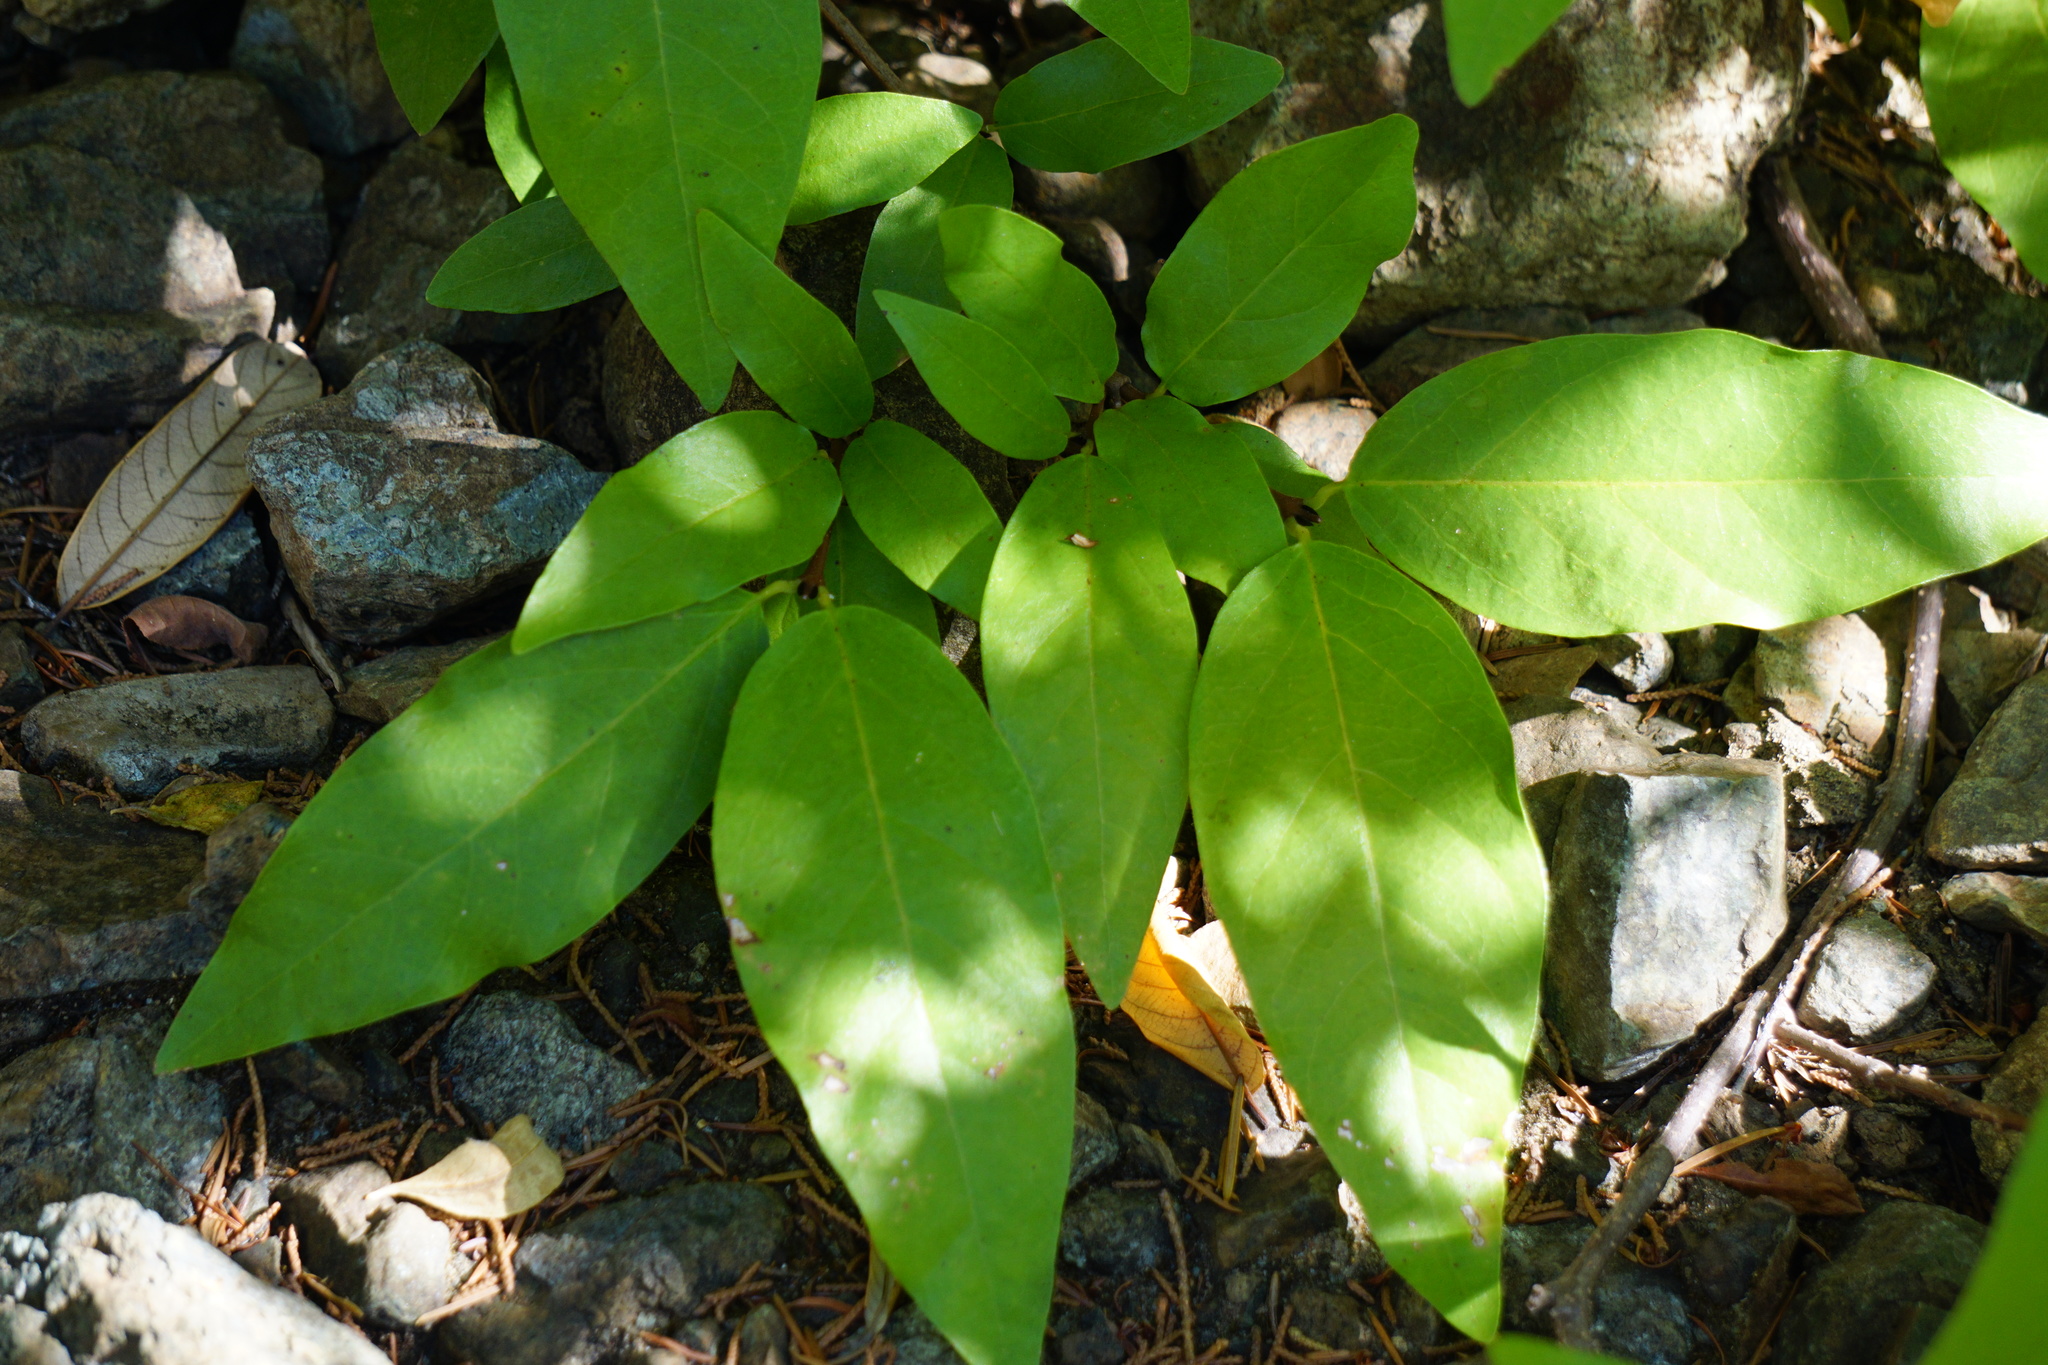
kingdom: Plantae
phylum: Tracheophyta
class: Magnoliopsida
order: Laurales
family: Calycanthaceae
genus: Calycanthus
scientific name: Calycanthus occidentalis
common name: California spicebush
